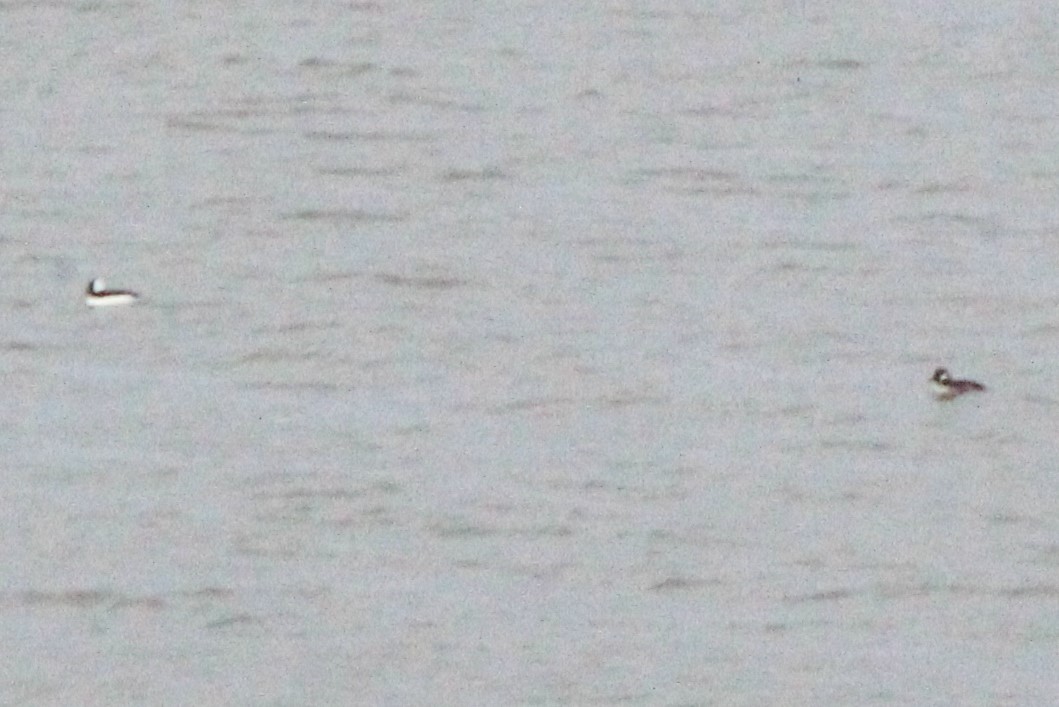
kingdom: Animalia
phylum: Chordata
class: Aves
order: Anseriformes
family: Anatidae
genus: Bucephala
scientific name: Bucephala albeola
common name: Bufflehead
